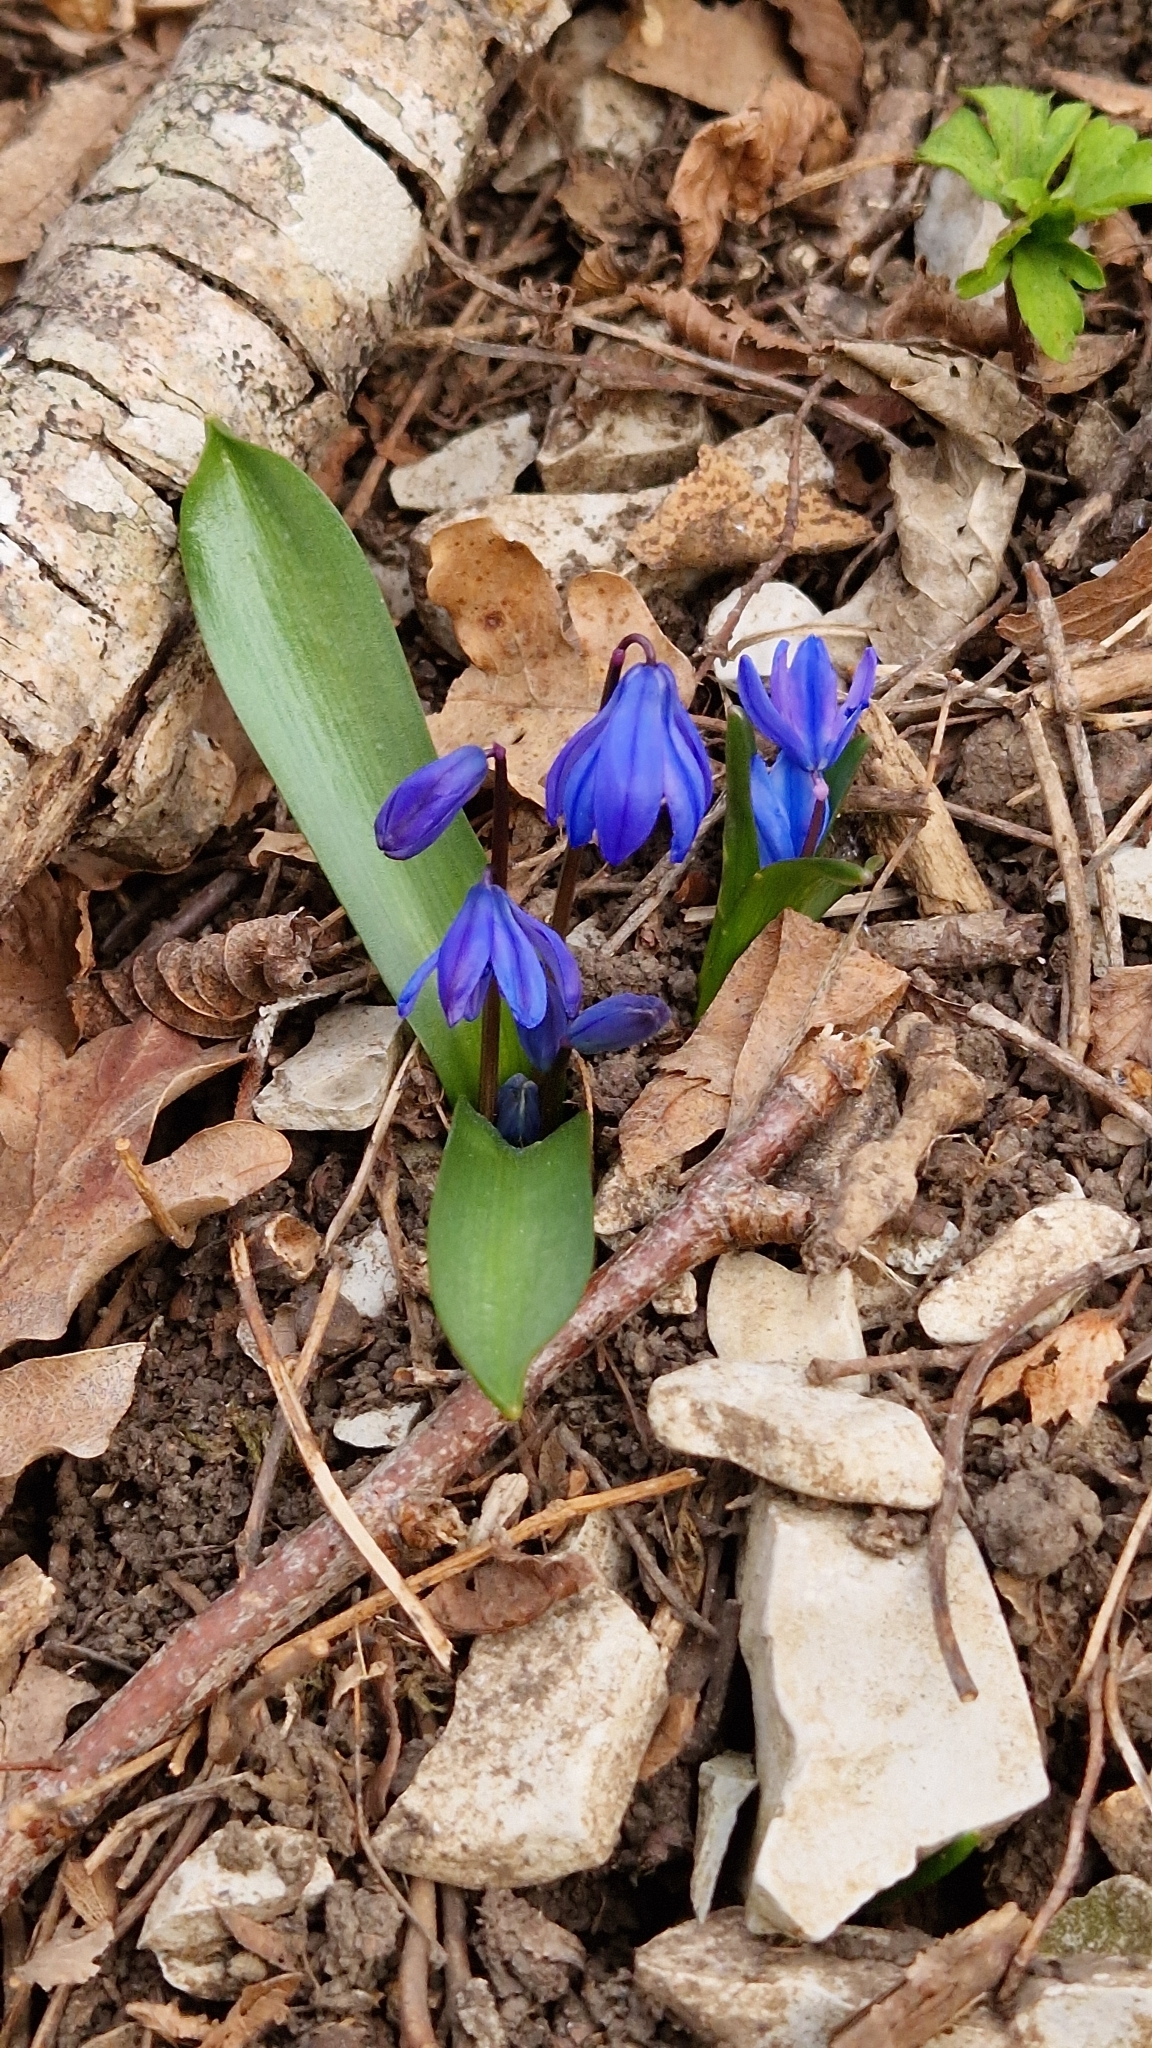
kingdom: Plantae
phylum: Tracheophyta
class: Liliopsida
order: Asparagales
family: Asparagaceae
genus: Scilla
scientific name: Scilla siberica
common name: Siberian squill
